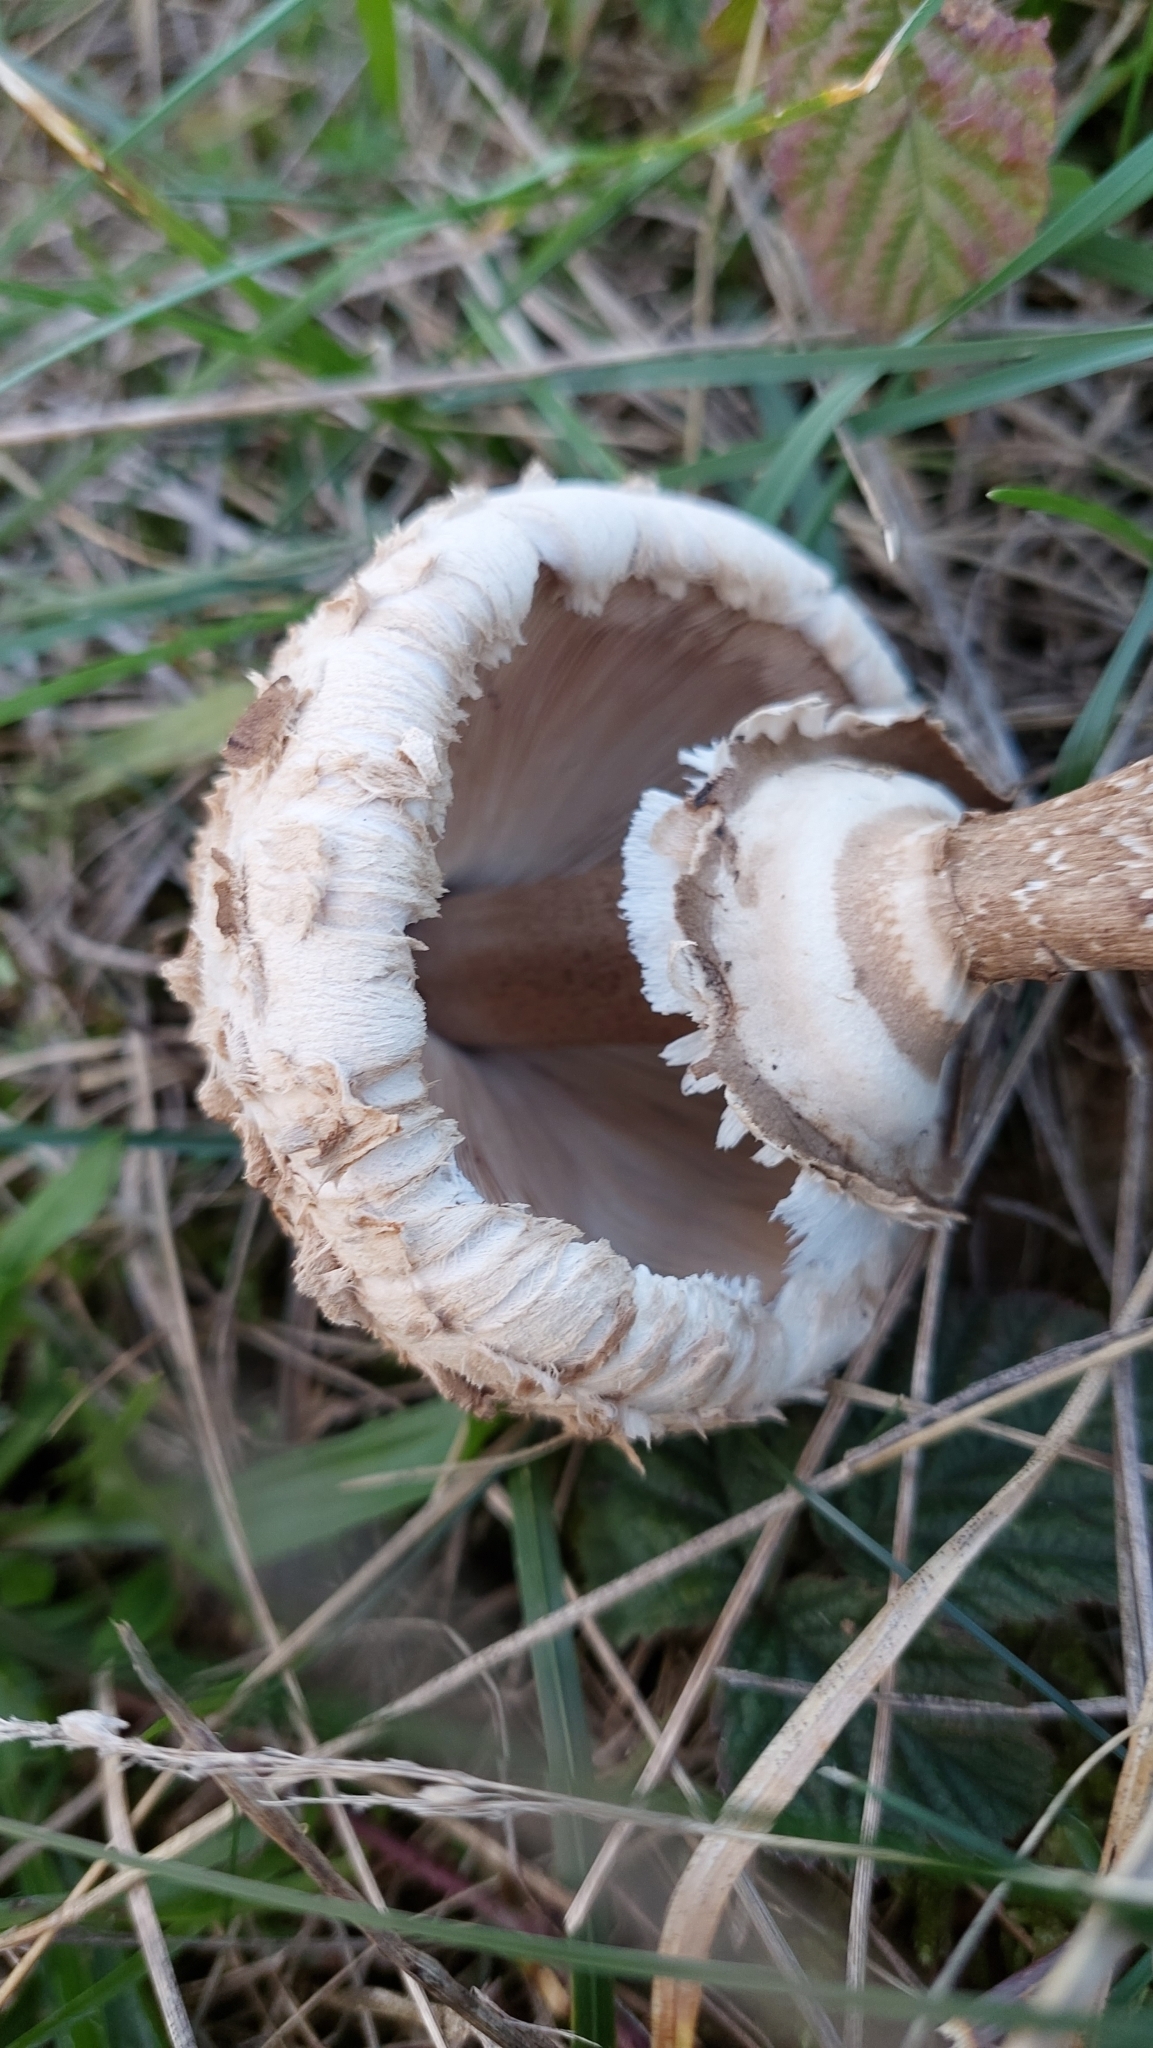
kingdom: Fungi
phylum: Basidiomycota
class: Agaricomycetes
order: Agaricales
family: Agaricaceae
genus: Macrolepiota
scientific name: Macrolepiota procera
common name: Parasol
